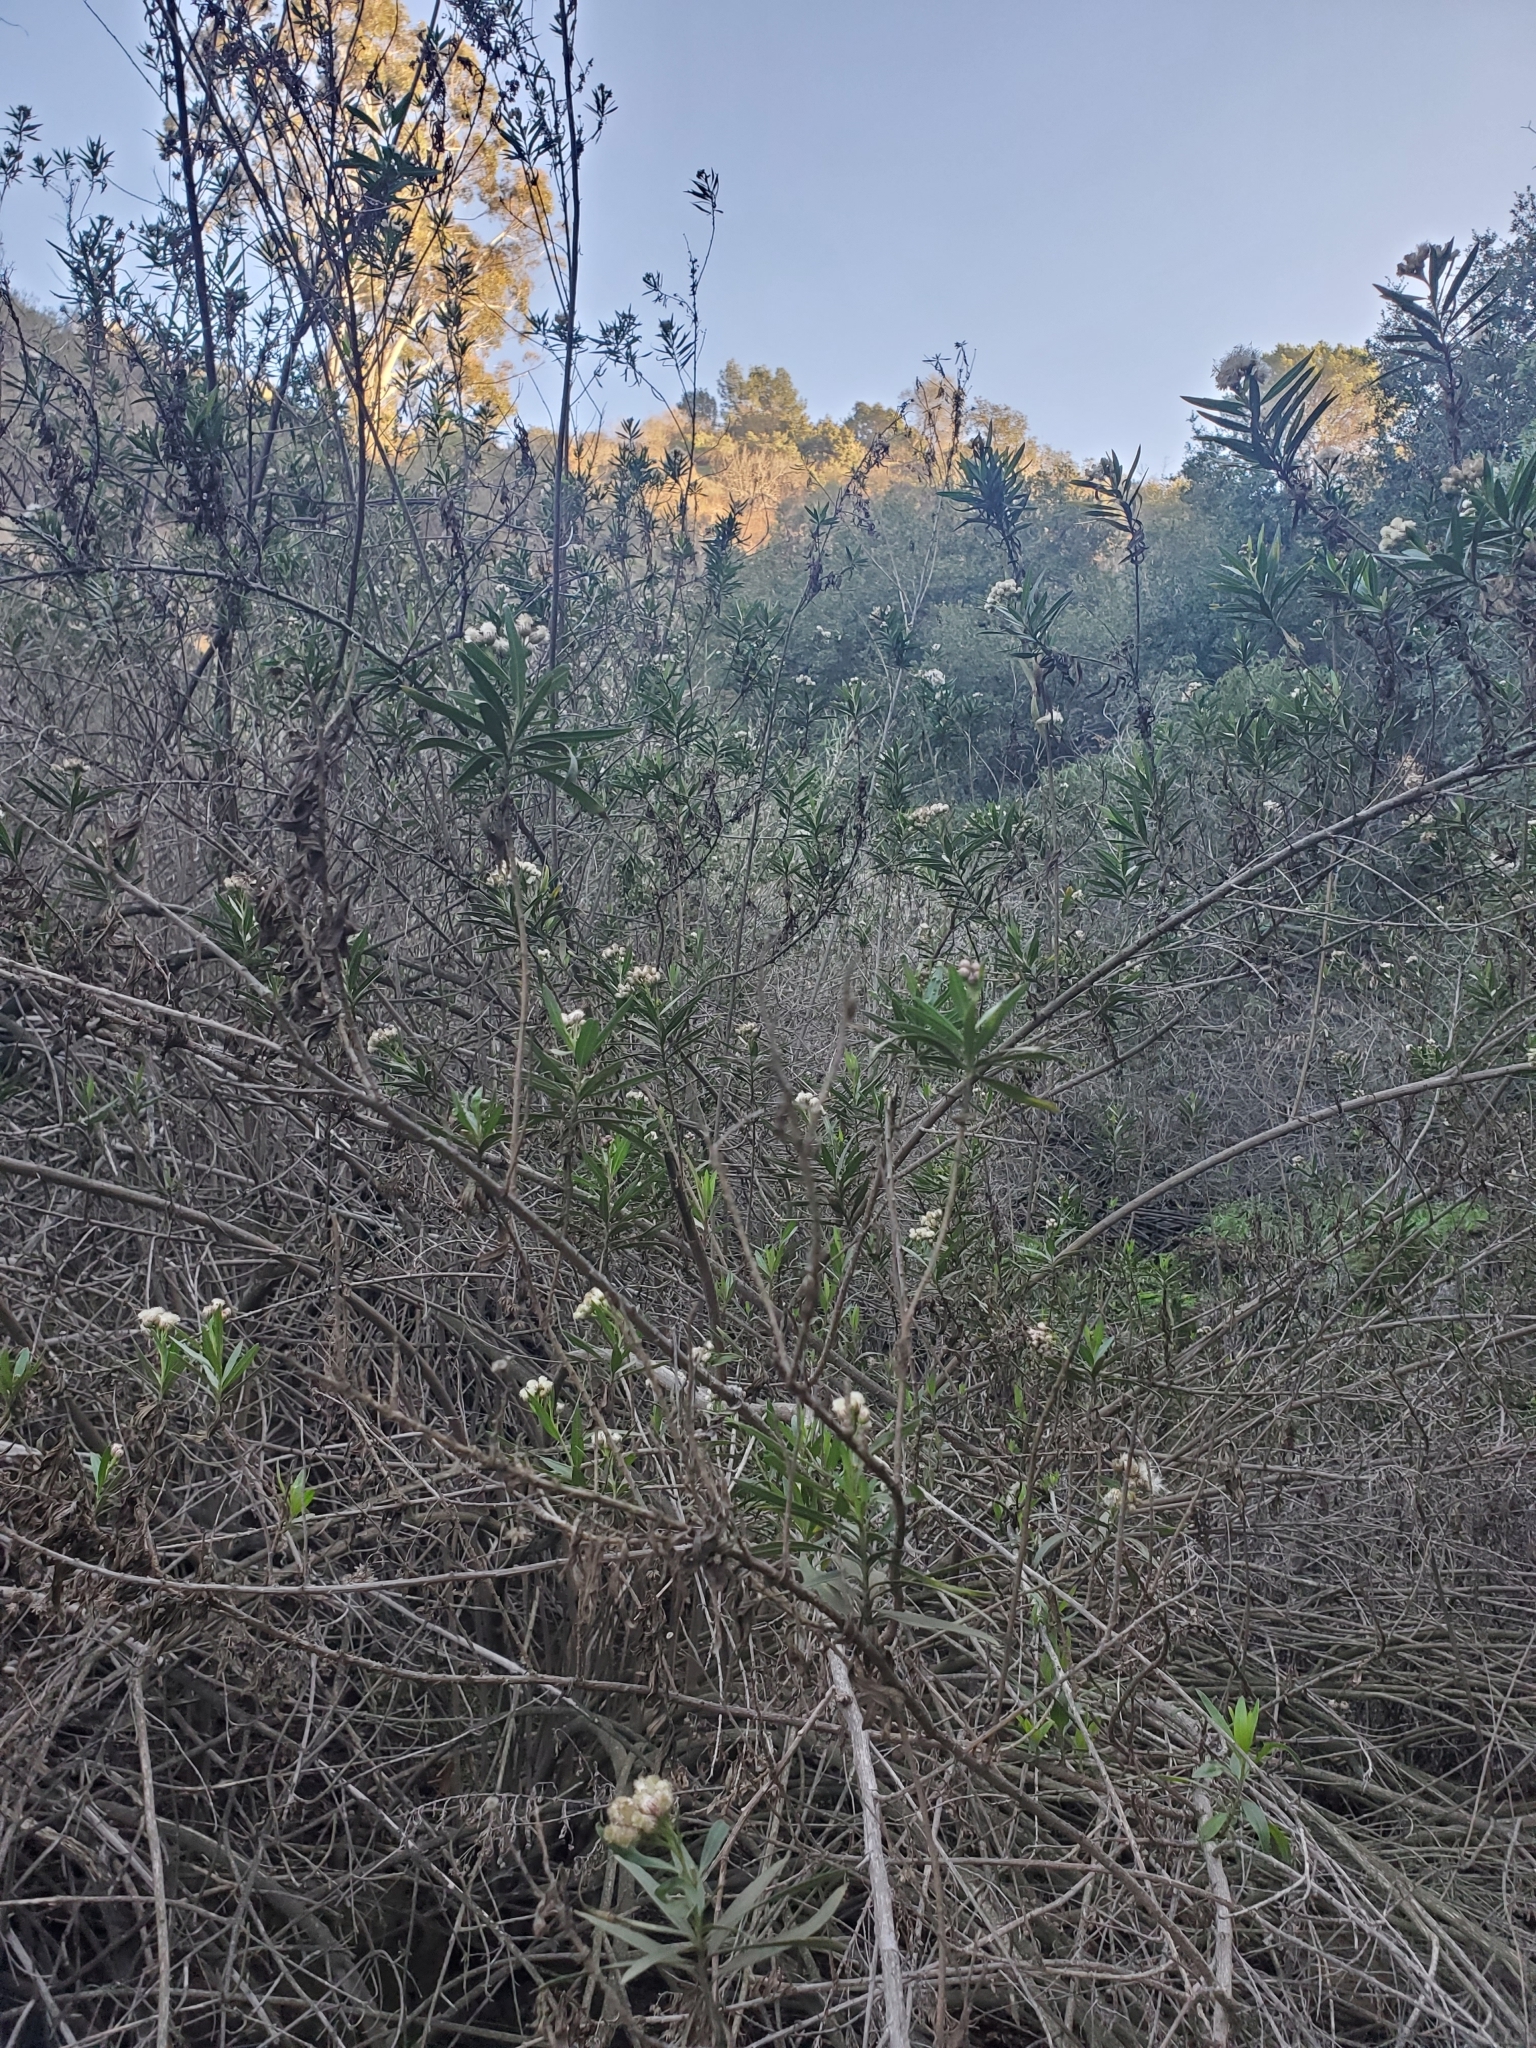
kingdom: Plantae
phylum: Tracheophyta
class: Magnoliopsida
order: Asterales
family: Asteraceae
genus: Baccharis
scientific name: Baccharis salicifolia
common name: Sticky baccharis
